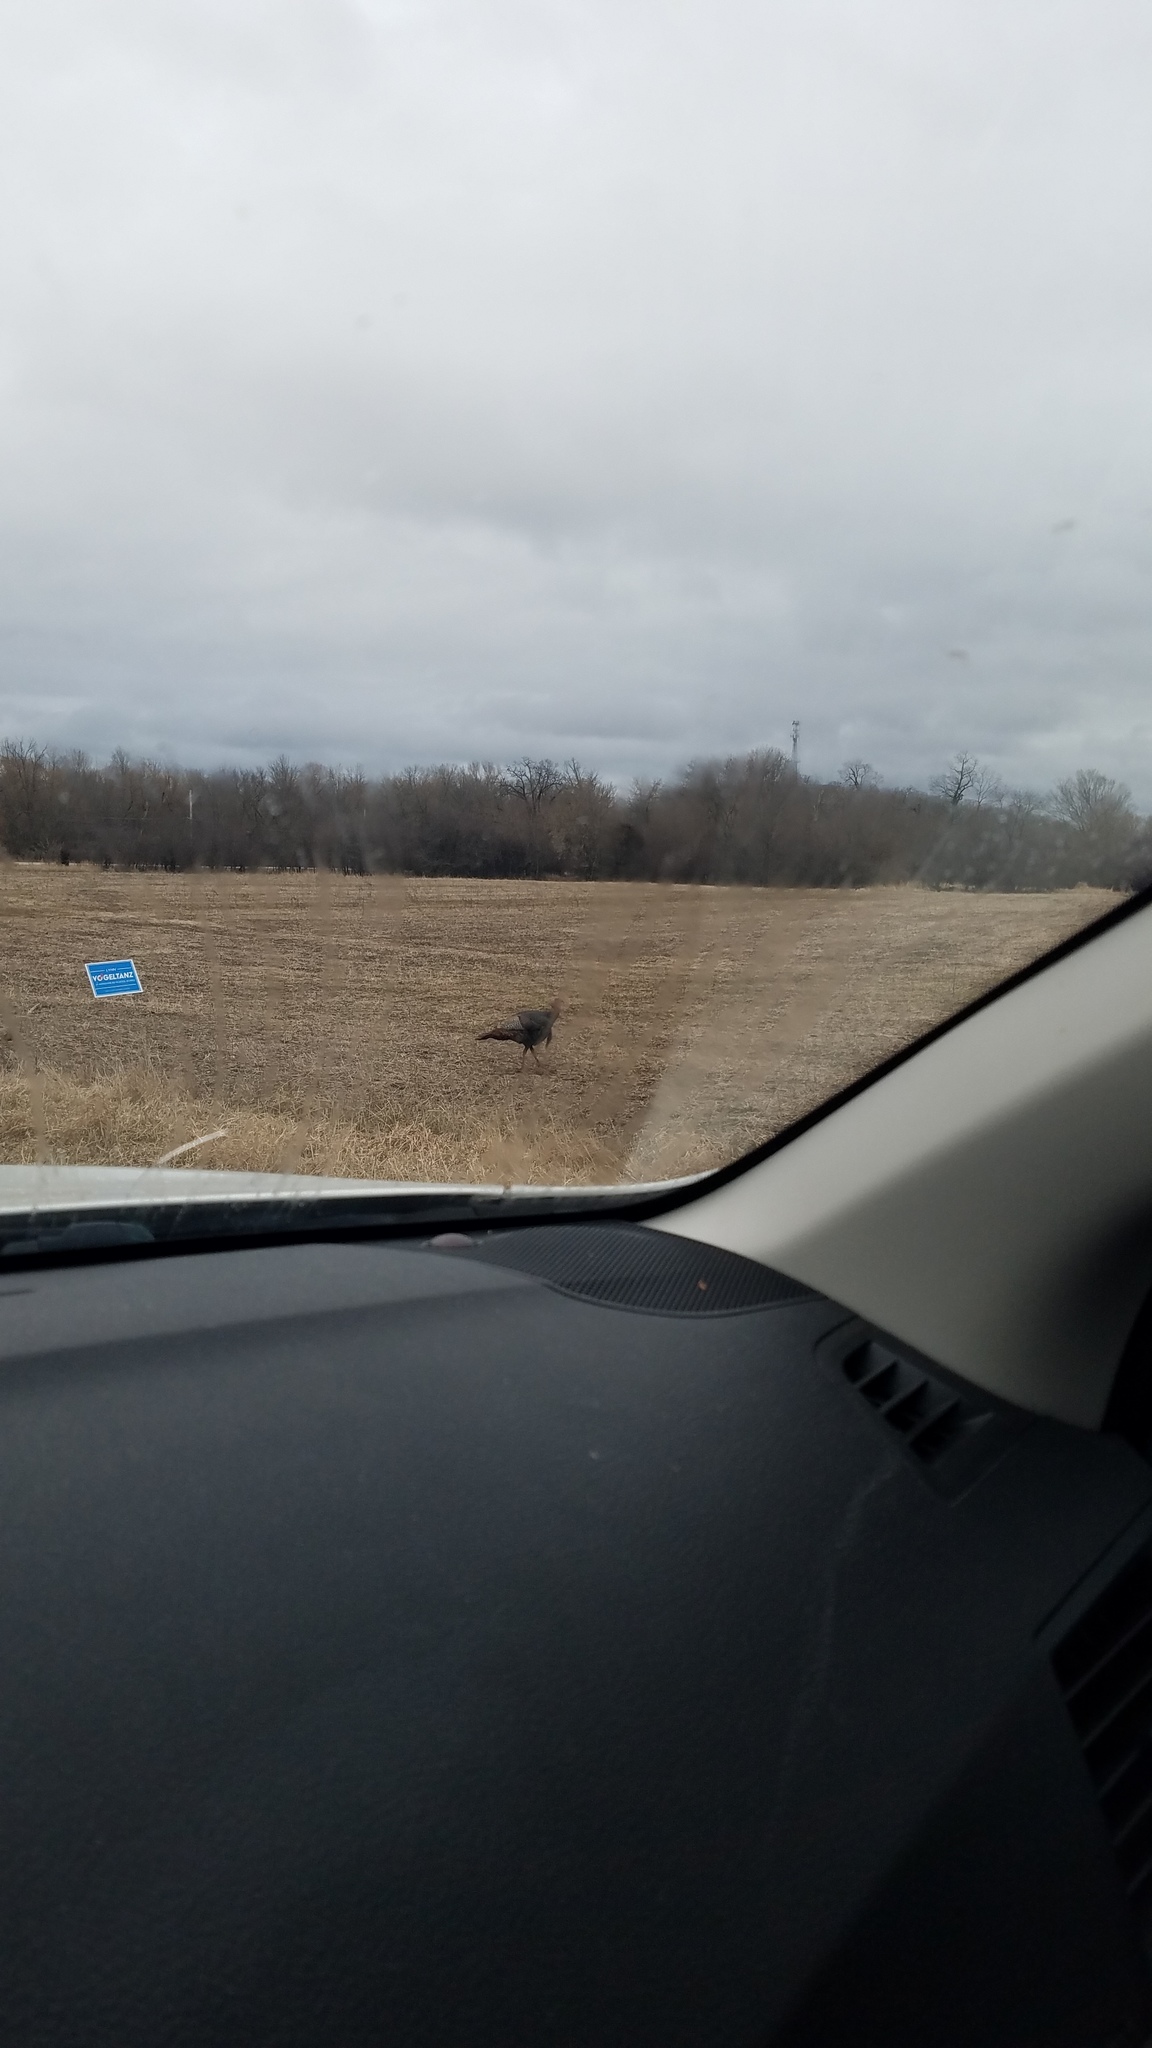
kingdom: Animalia
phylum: Chordata
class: Aves
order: Galliformes
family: Phasianidae
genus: Meleagris
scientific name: Meleagris gallopavo
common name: Wild turkey
